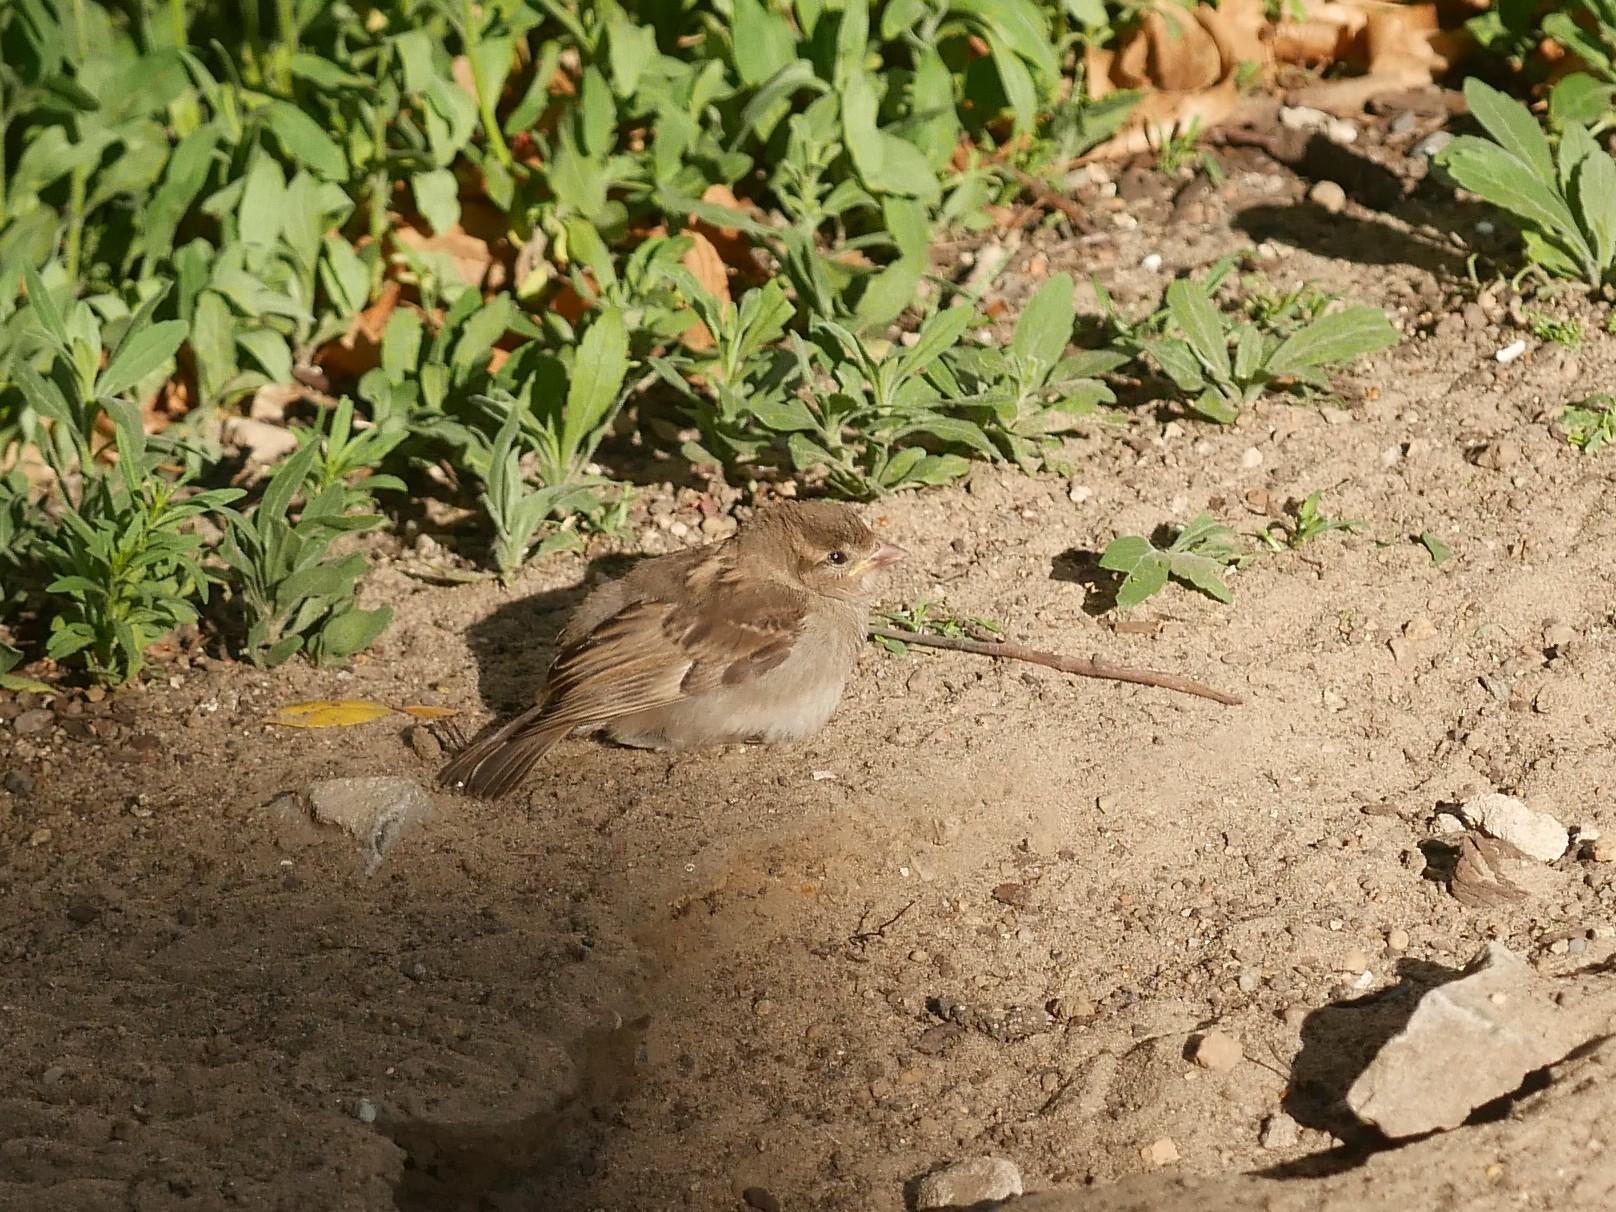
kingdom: Animalia
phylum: Chordata
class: Aves
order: Passeriformes
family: Passeridae
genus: Passer
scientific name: Passer domesticus
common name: House sparrow
